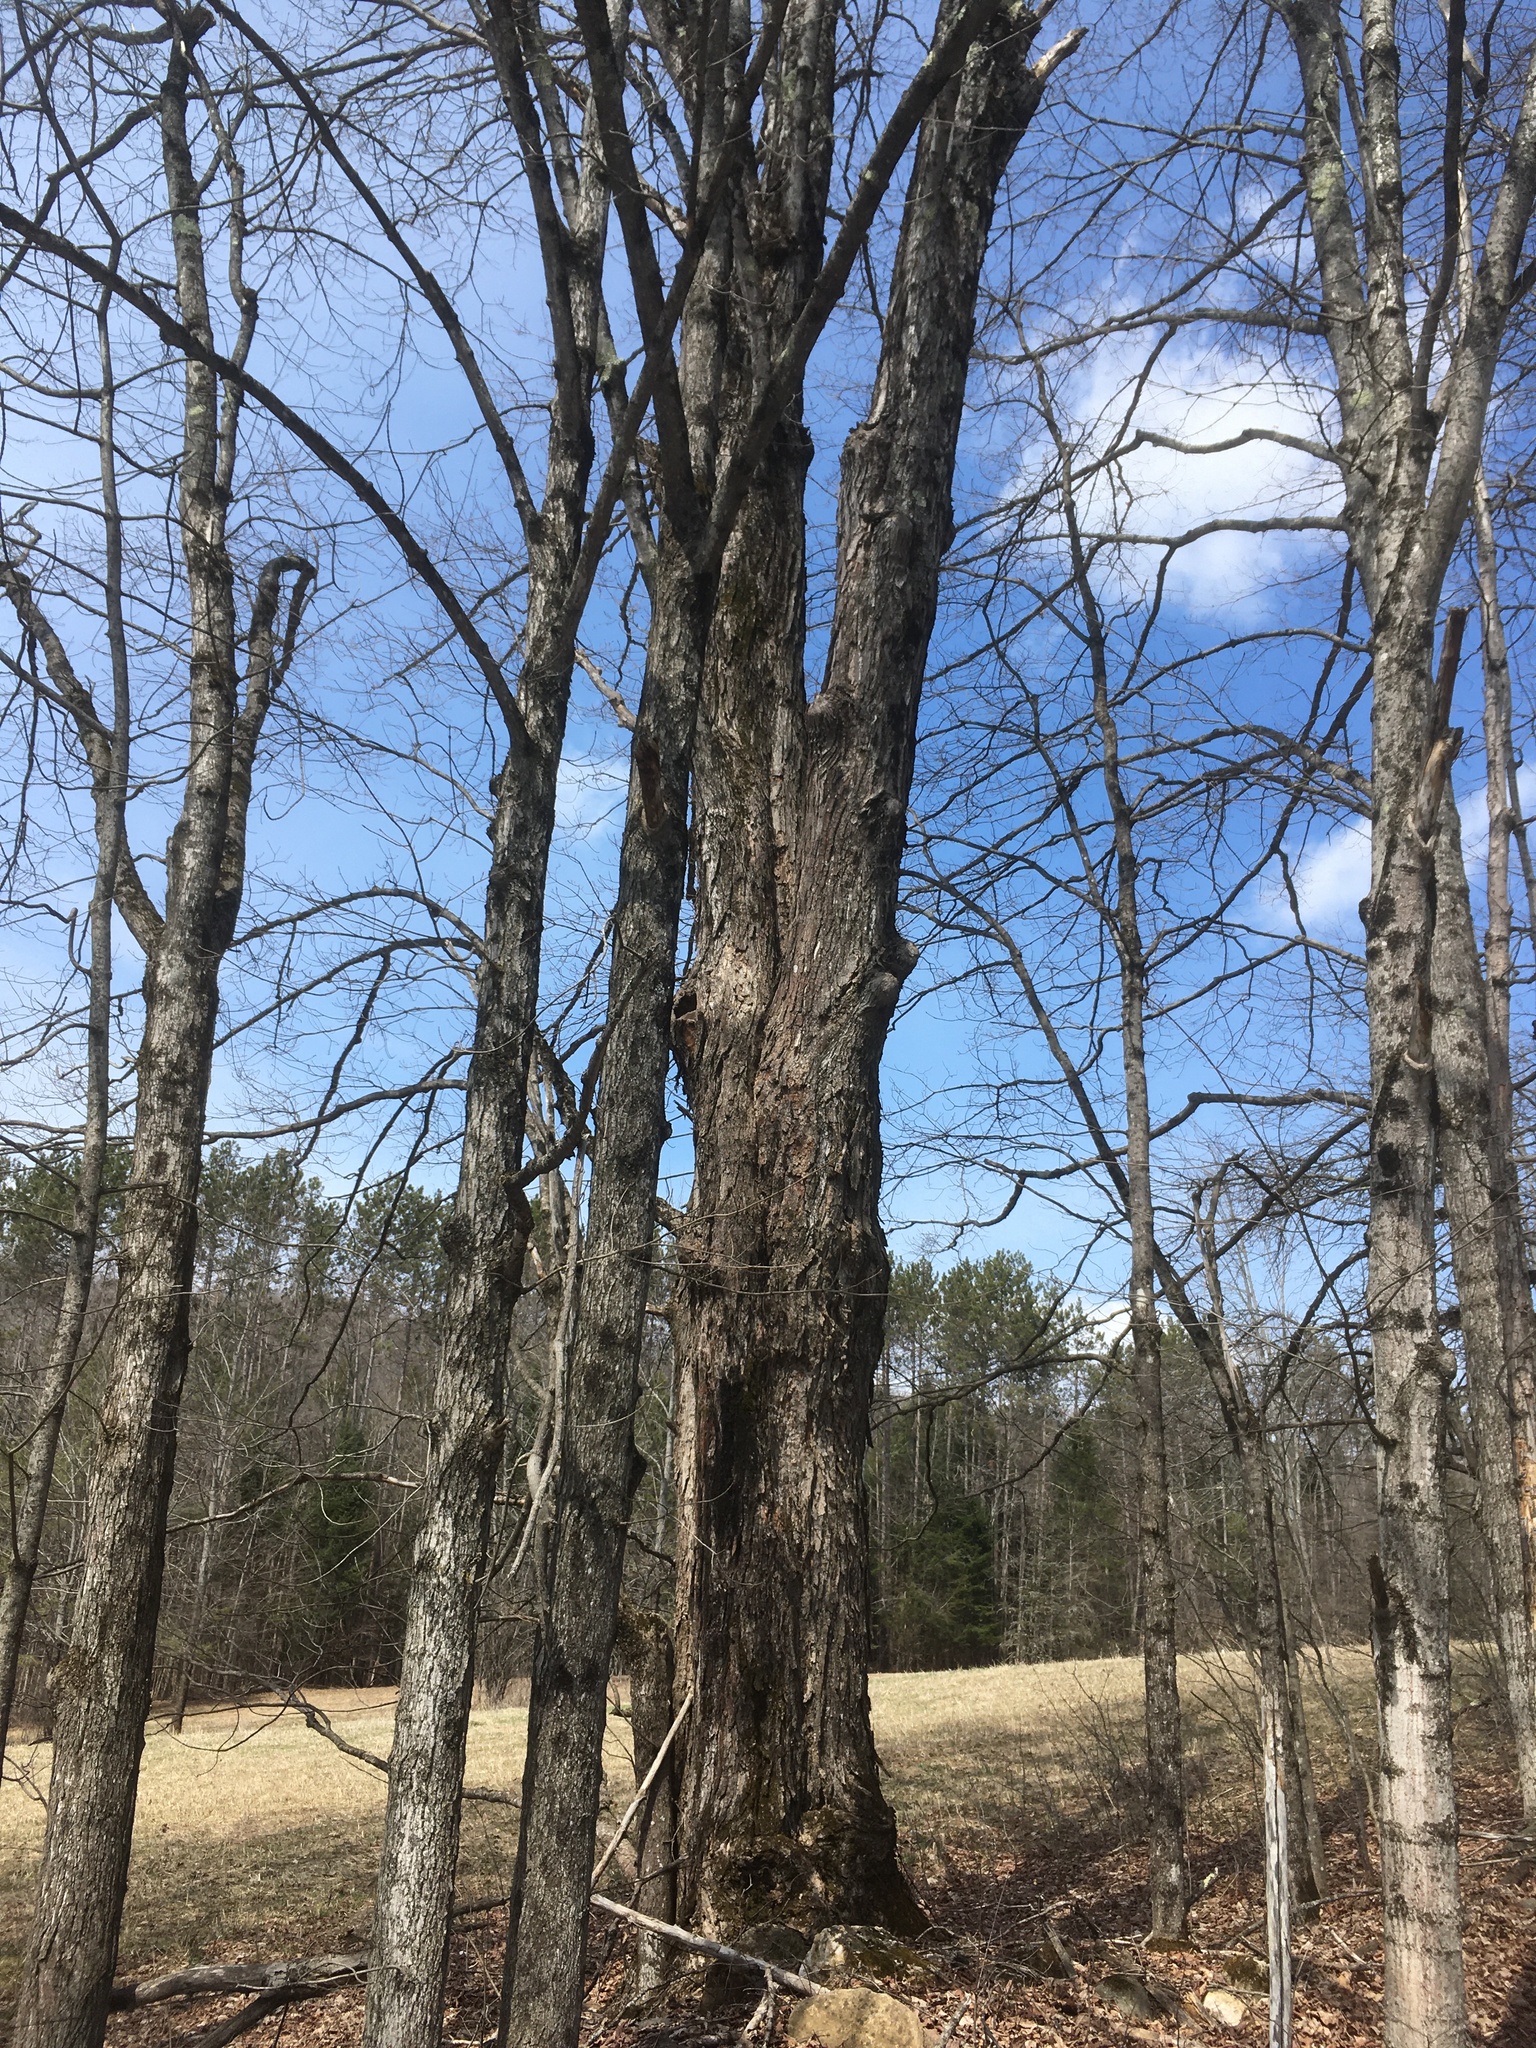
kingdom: Plantae
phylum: Tracheophyta
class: Magnoliopsida
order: Sapindales
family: Sapindaceae
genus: Acer
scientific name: Acer saccharum
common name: Sugar maple
